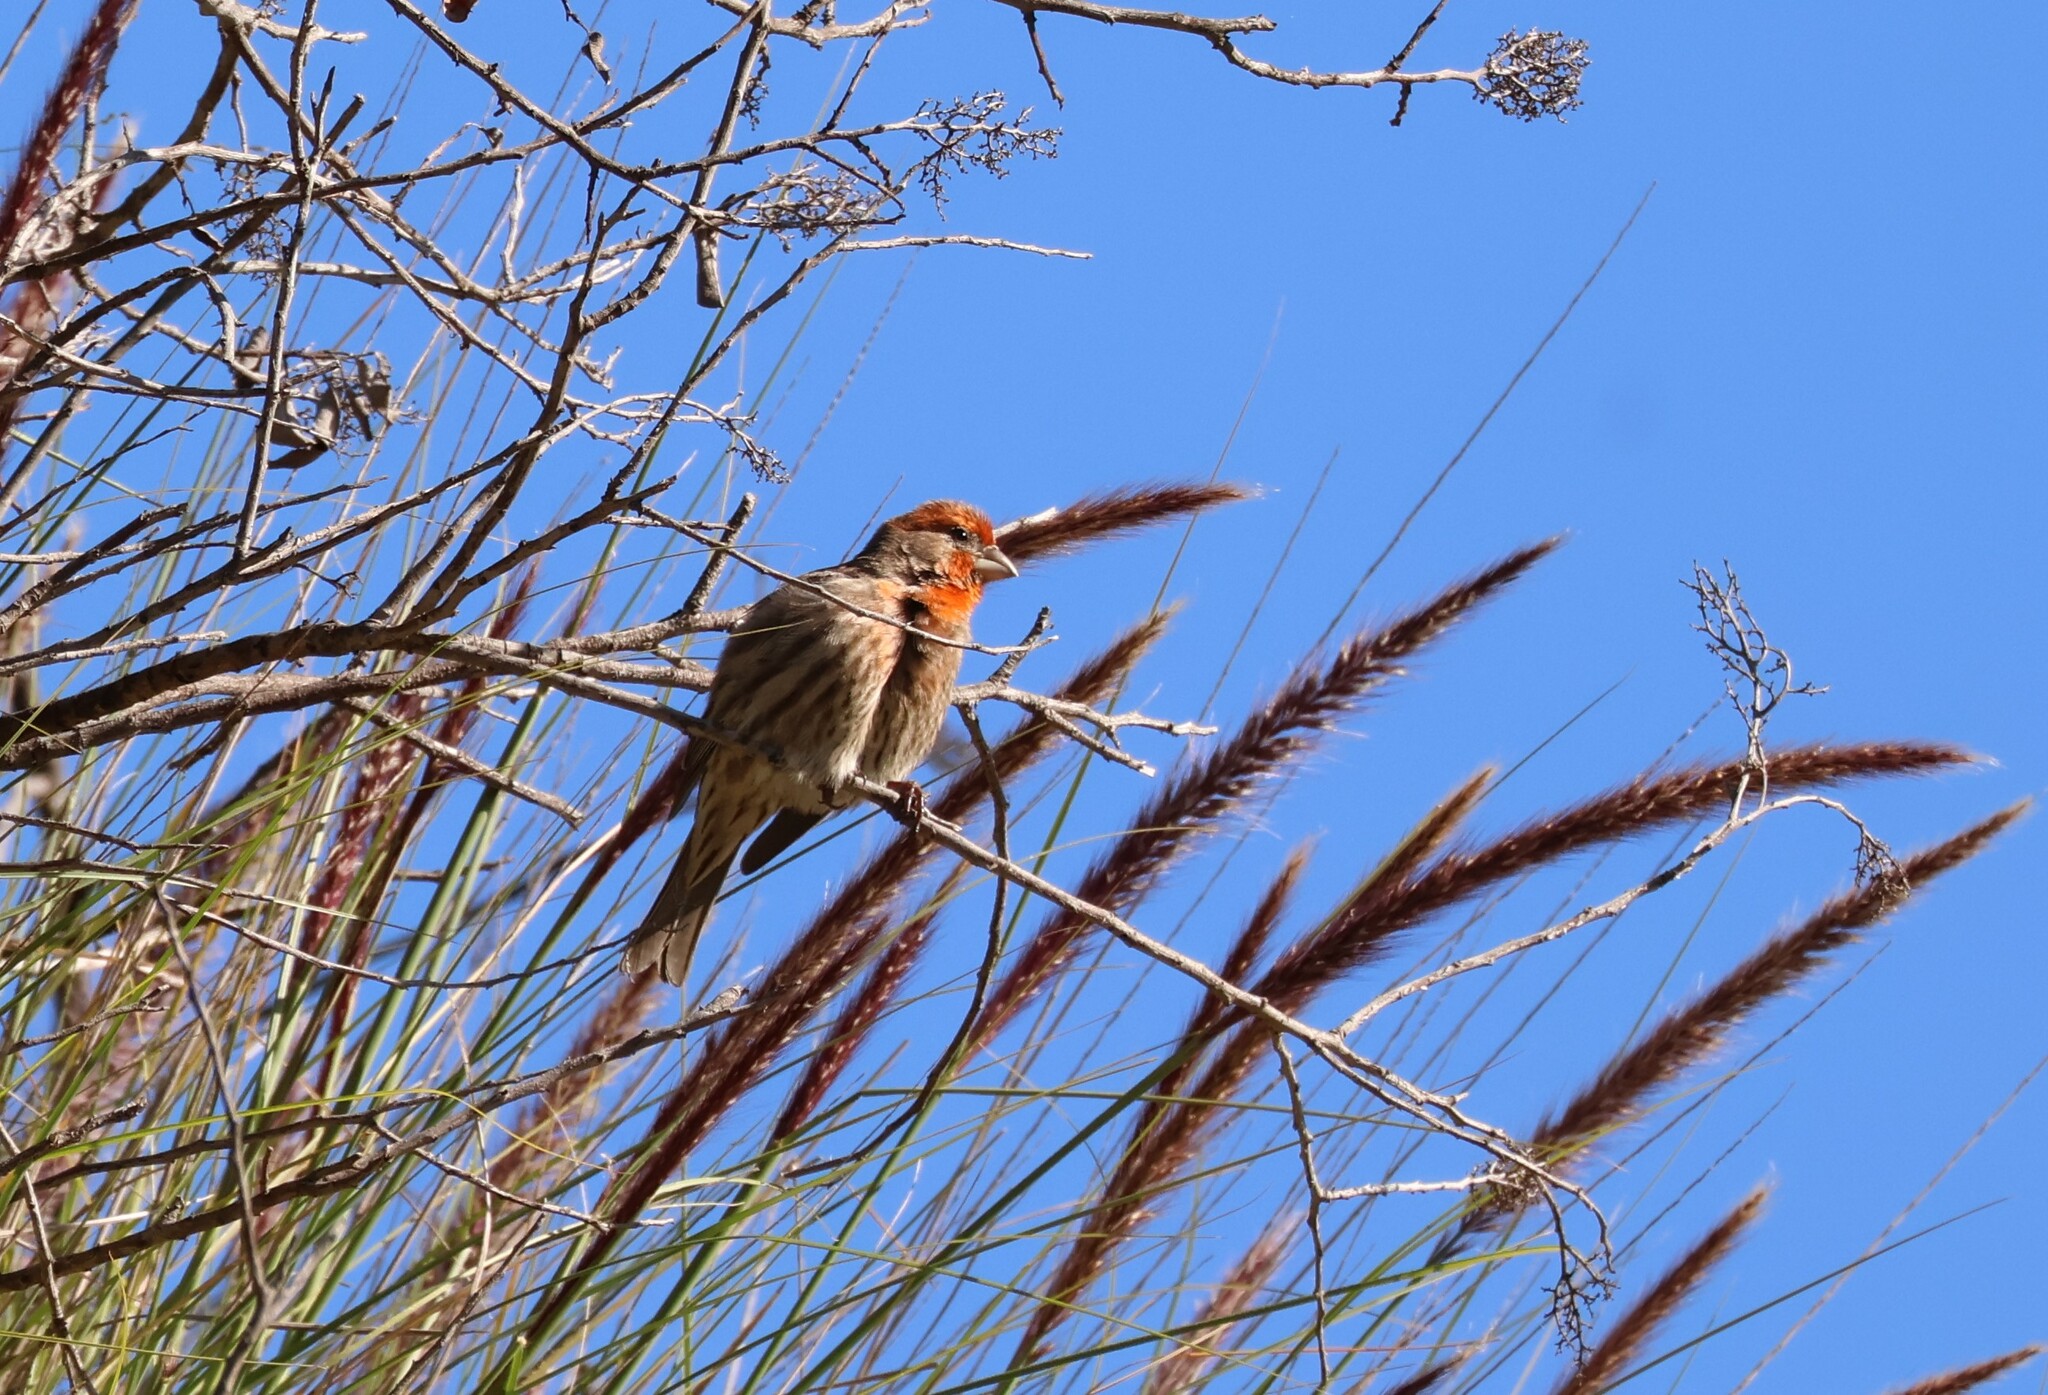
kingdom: Animalia
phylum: Chordata
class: Aves
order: Passeriformes
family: Fringillidae
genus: Haemorhous
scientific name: Haemorhous mexicanus
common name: House finch
